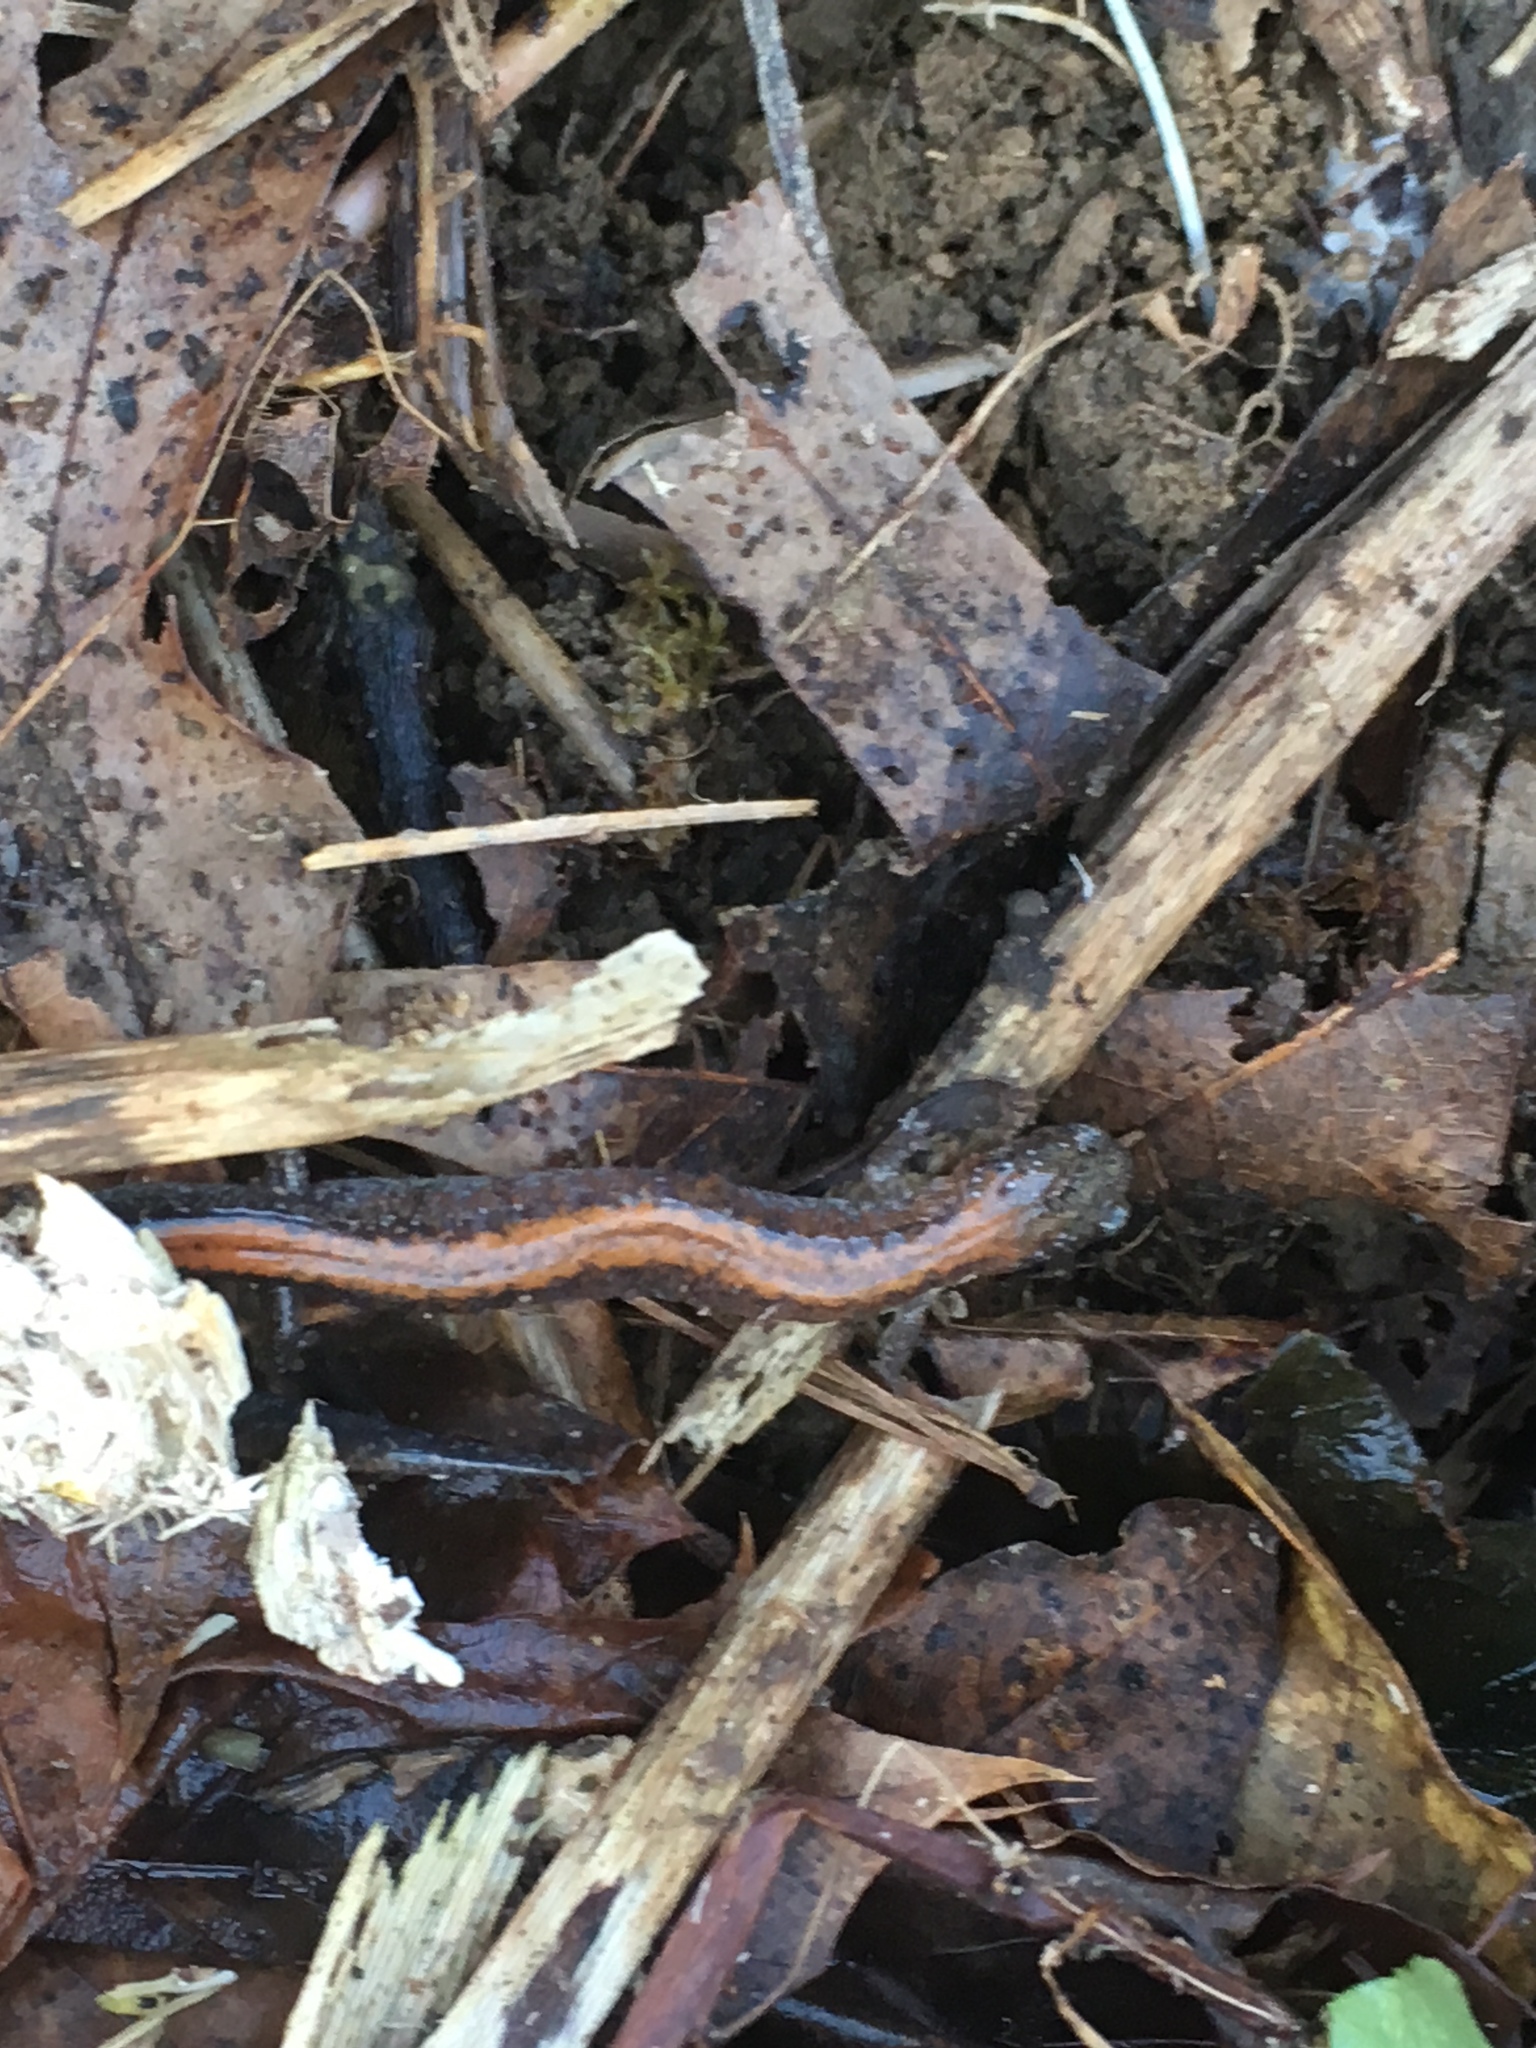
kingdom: Animalia
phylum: Chordata
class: Amphibia
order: Caudata
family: Plethodontidae
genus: Plethodon
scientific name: Plethodon cinereus
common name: Redback salamander
